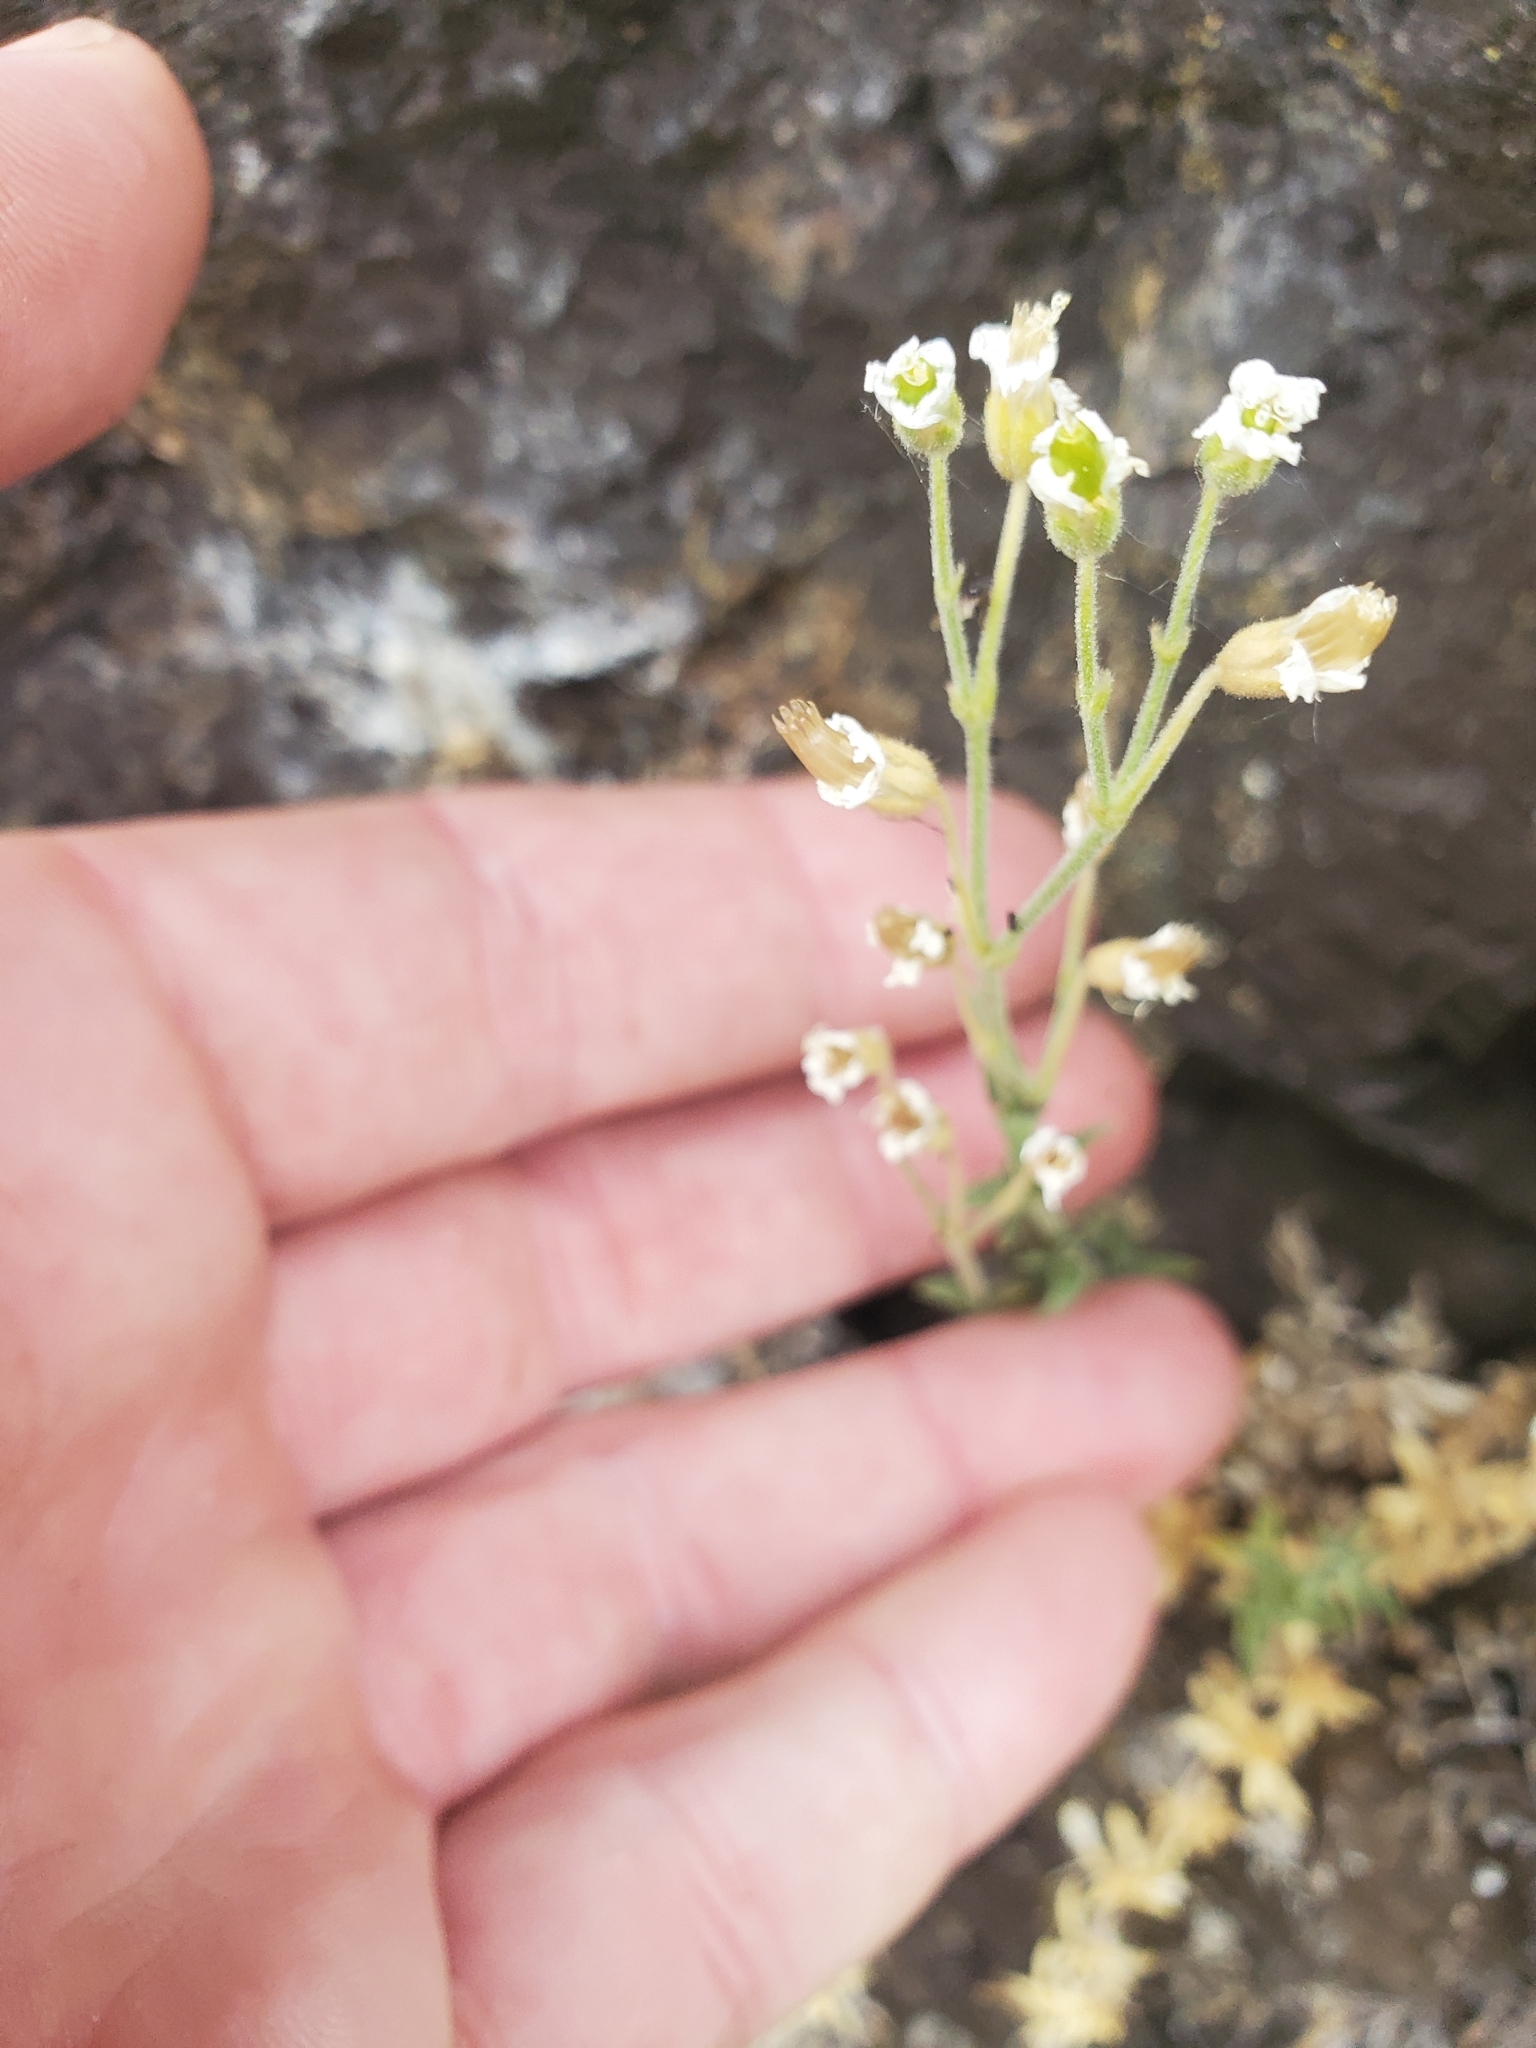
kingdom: Plantae
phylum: Tracheophyta
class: Magnoliopsida
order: Caryophyllales
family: Caryophyllaceae
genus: Cerastium
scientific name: Cerastium arvense
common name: Field mouse-ear
